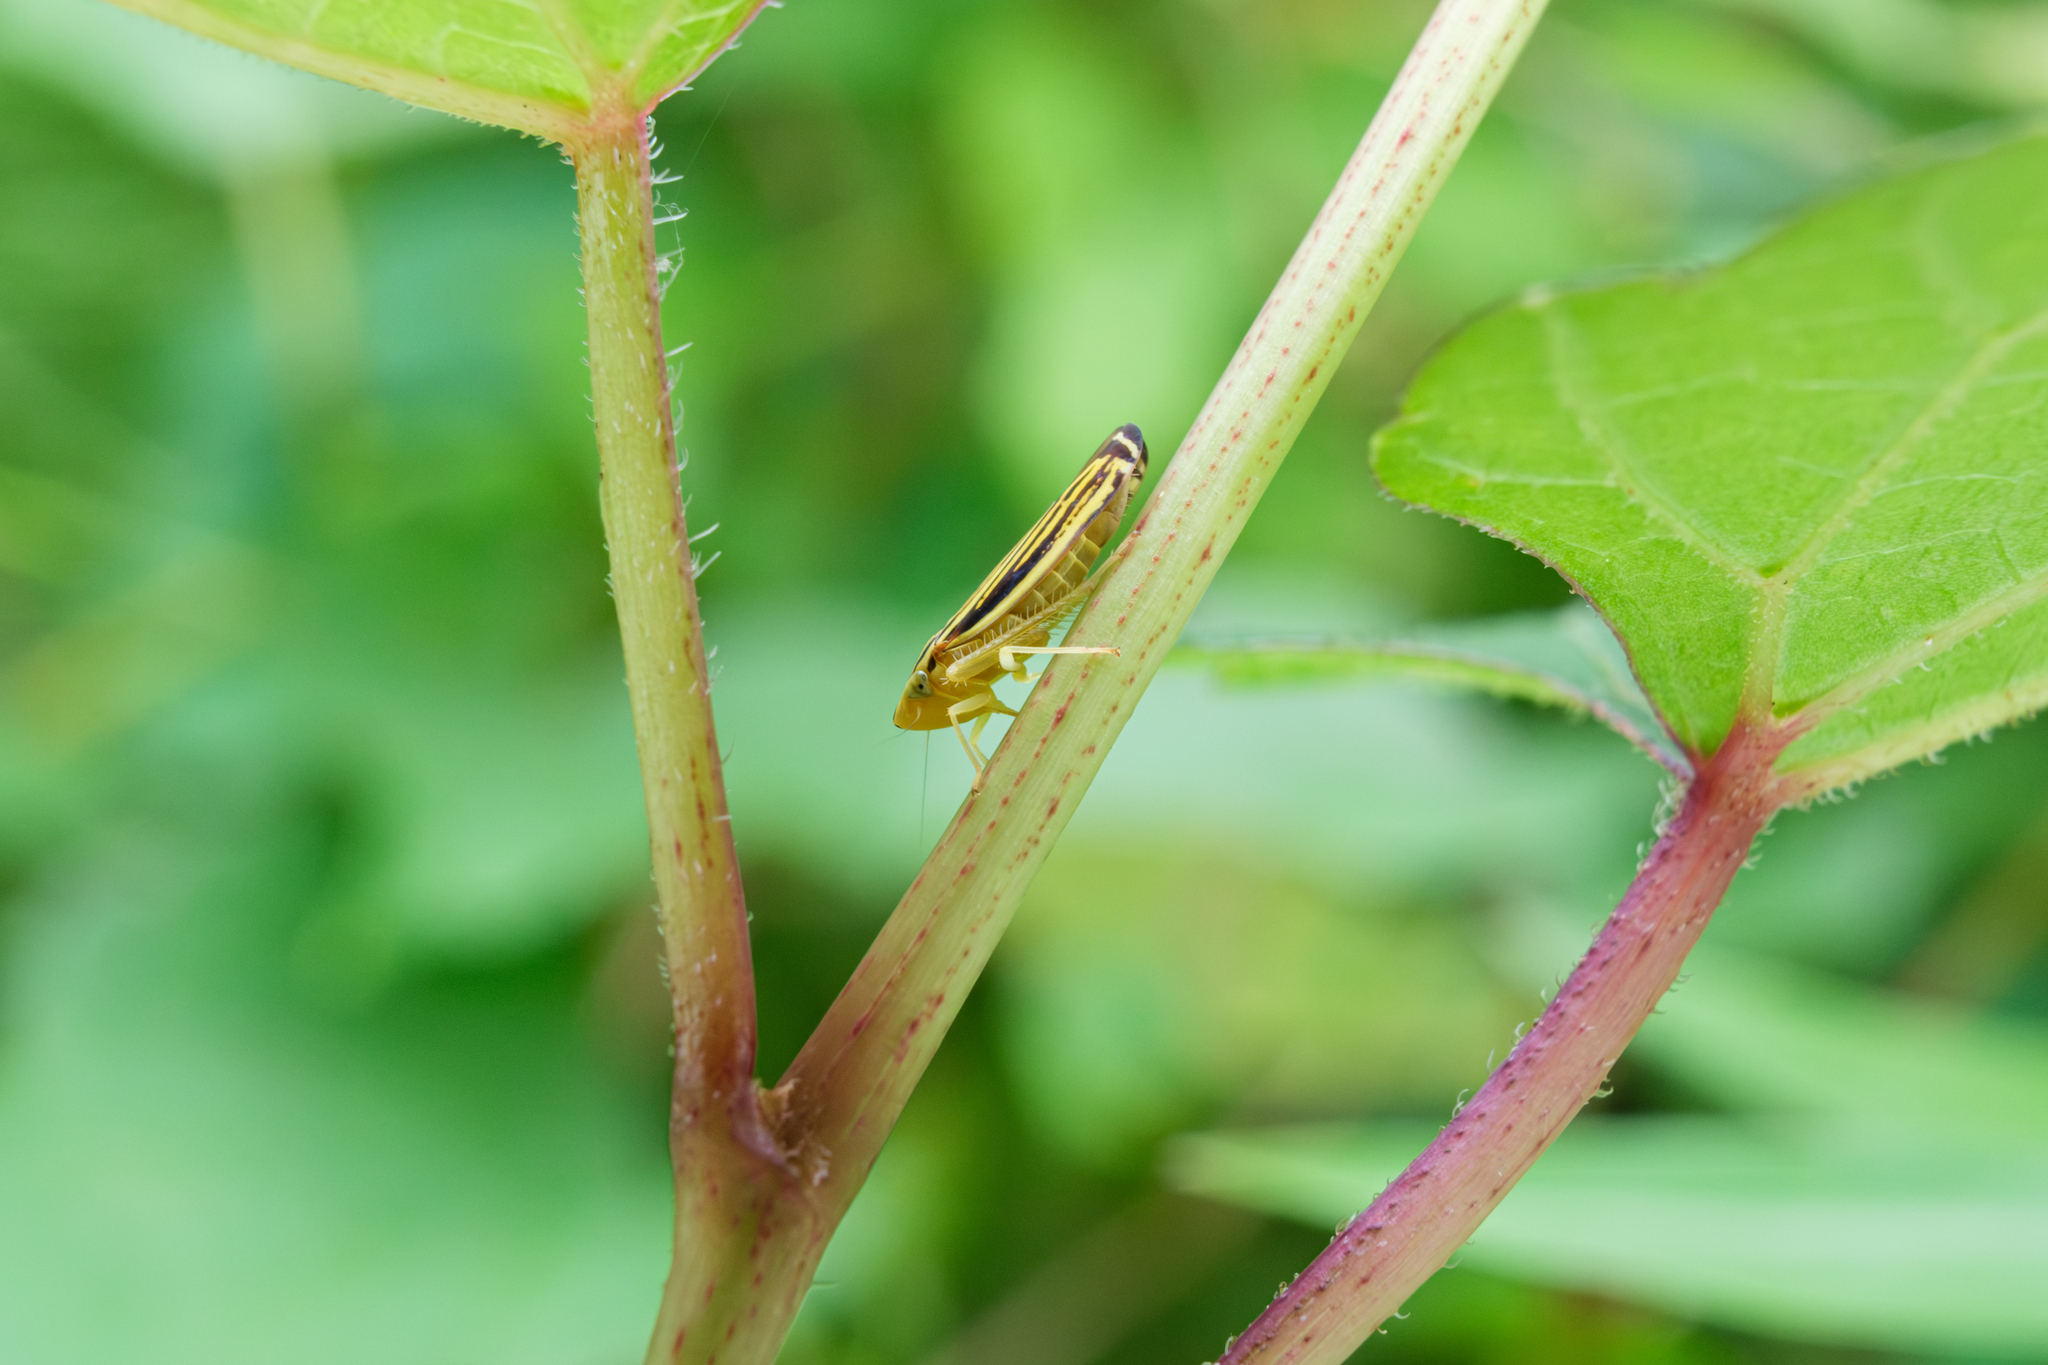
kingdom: Animalia
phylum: Arthropoda
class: Insecta
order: Hemiptera
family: Cicadellidae
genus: Sibovia
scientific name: Sibovia occatoria
